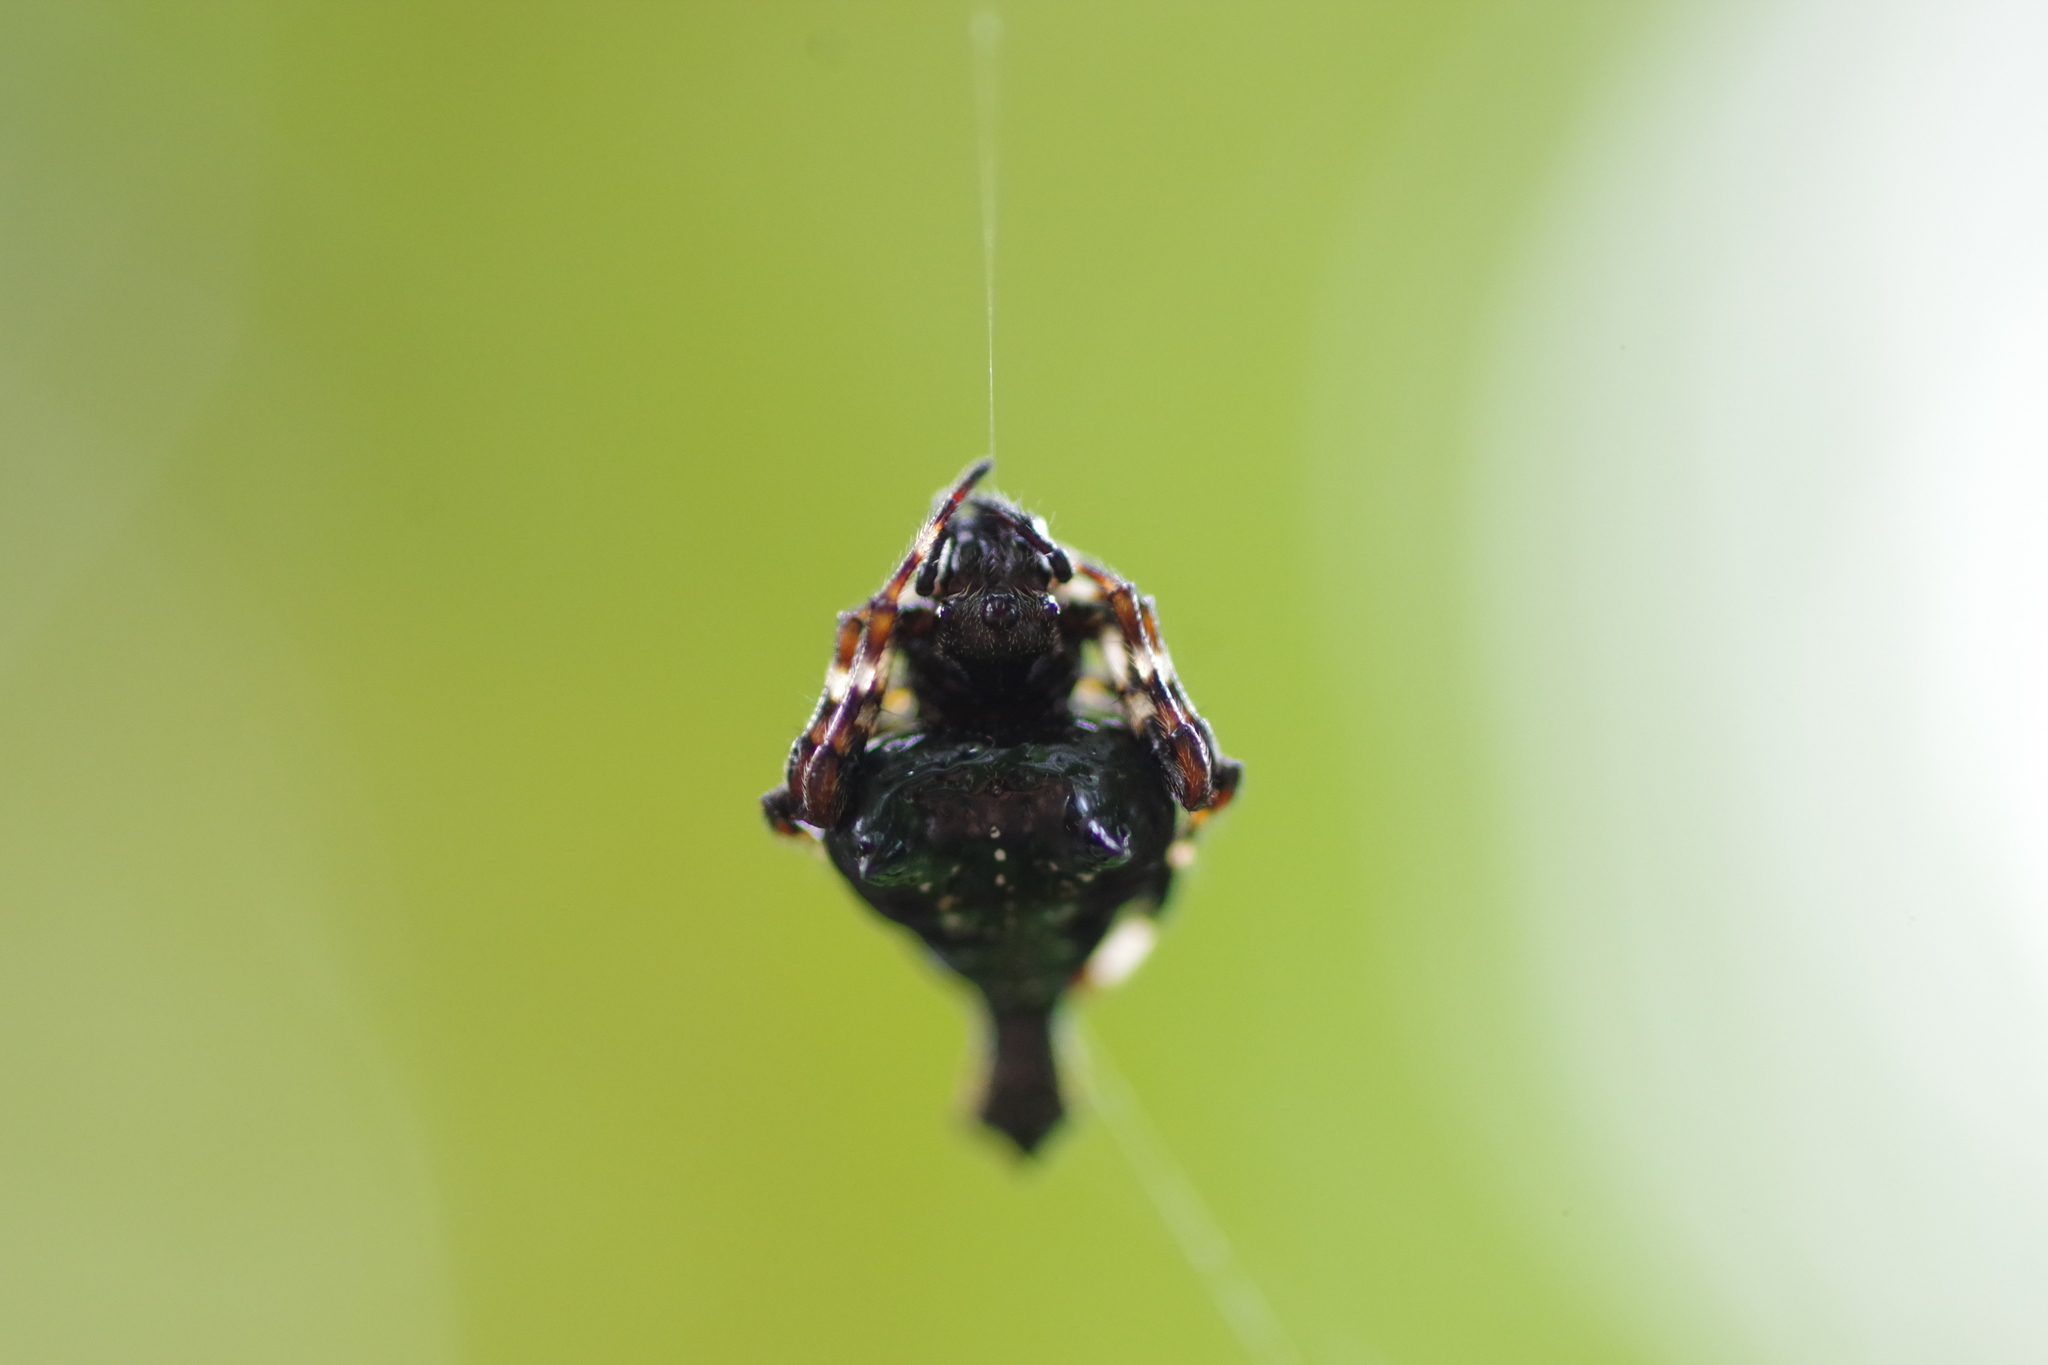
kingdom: Animalia
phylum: Arthropoda
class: Arachnida
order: Araneae
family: Araneidae
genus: Witica
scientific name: Witica crassicauda
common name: Orb weavers
